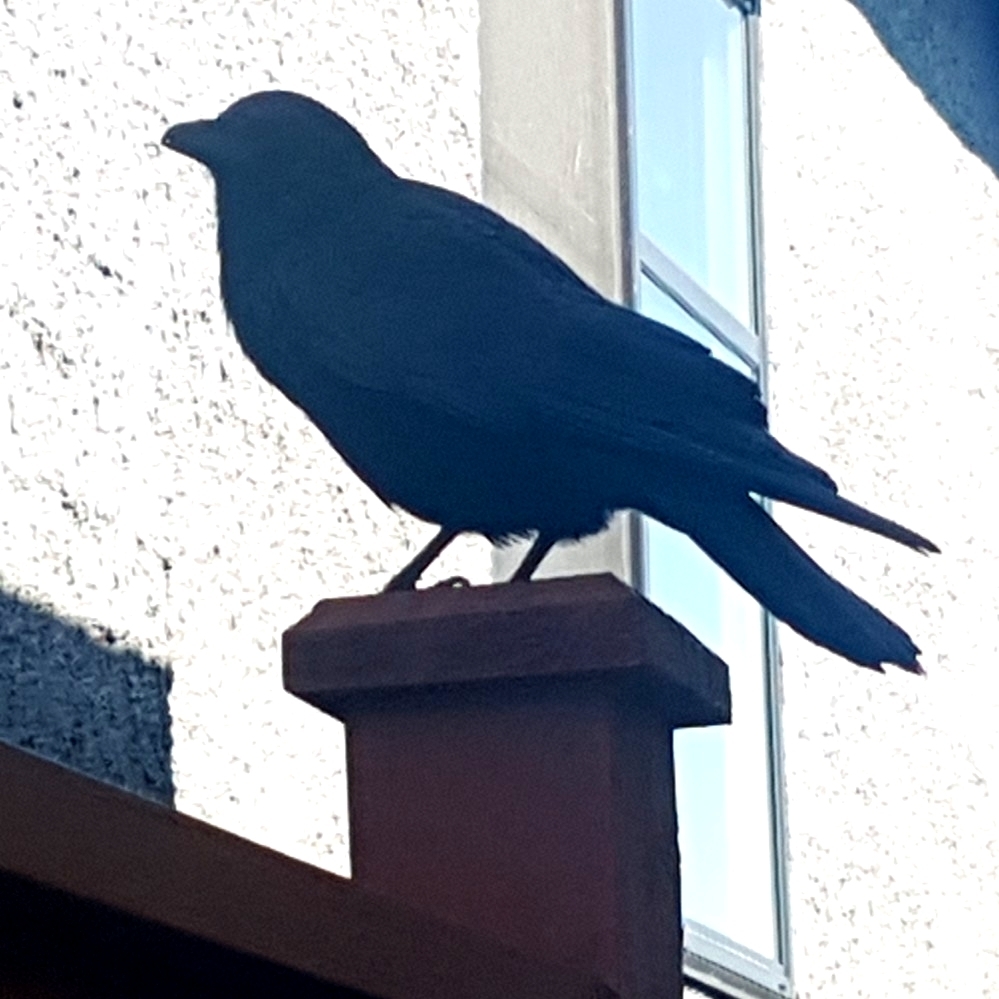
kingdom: Animalia
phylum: Chordata
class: Aves
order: Passeriformes
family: Corvidae
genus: Corvus
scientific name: Corvus brachyrhynchos
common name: American crow
